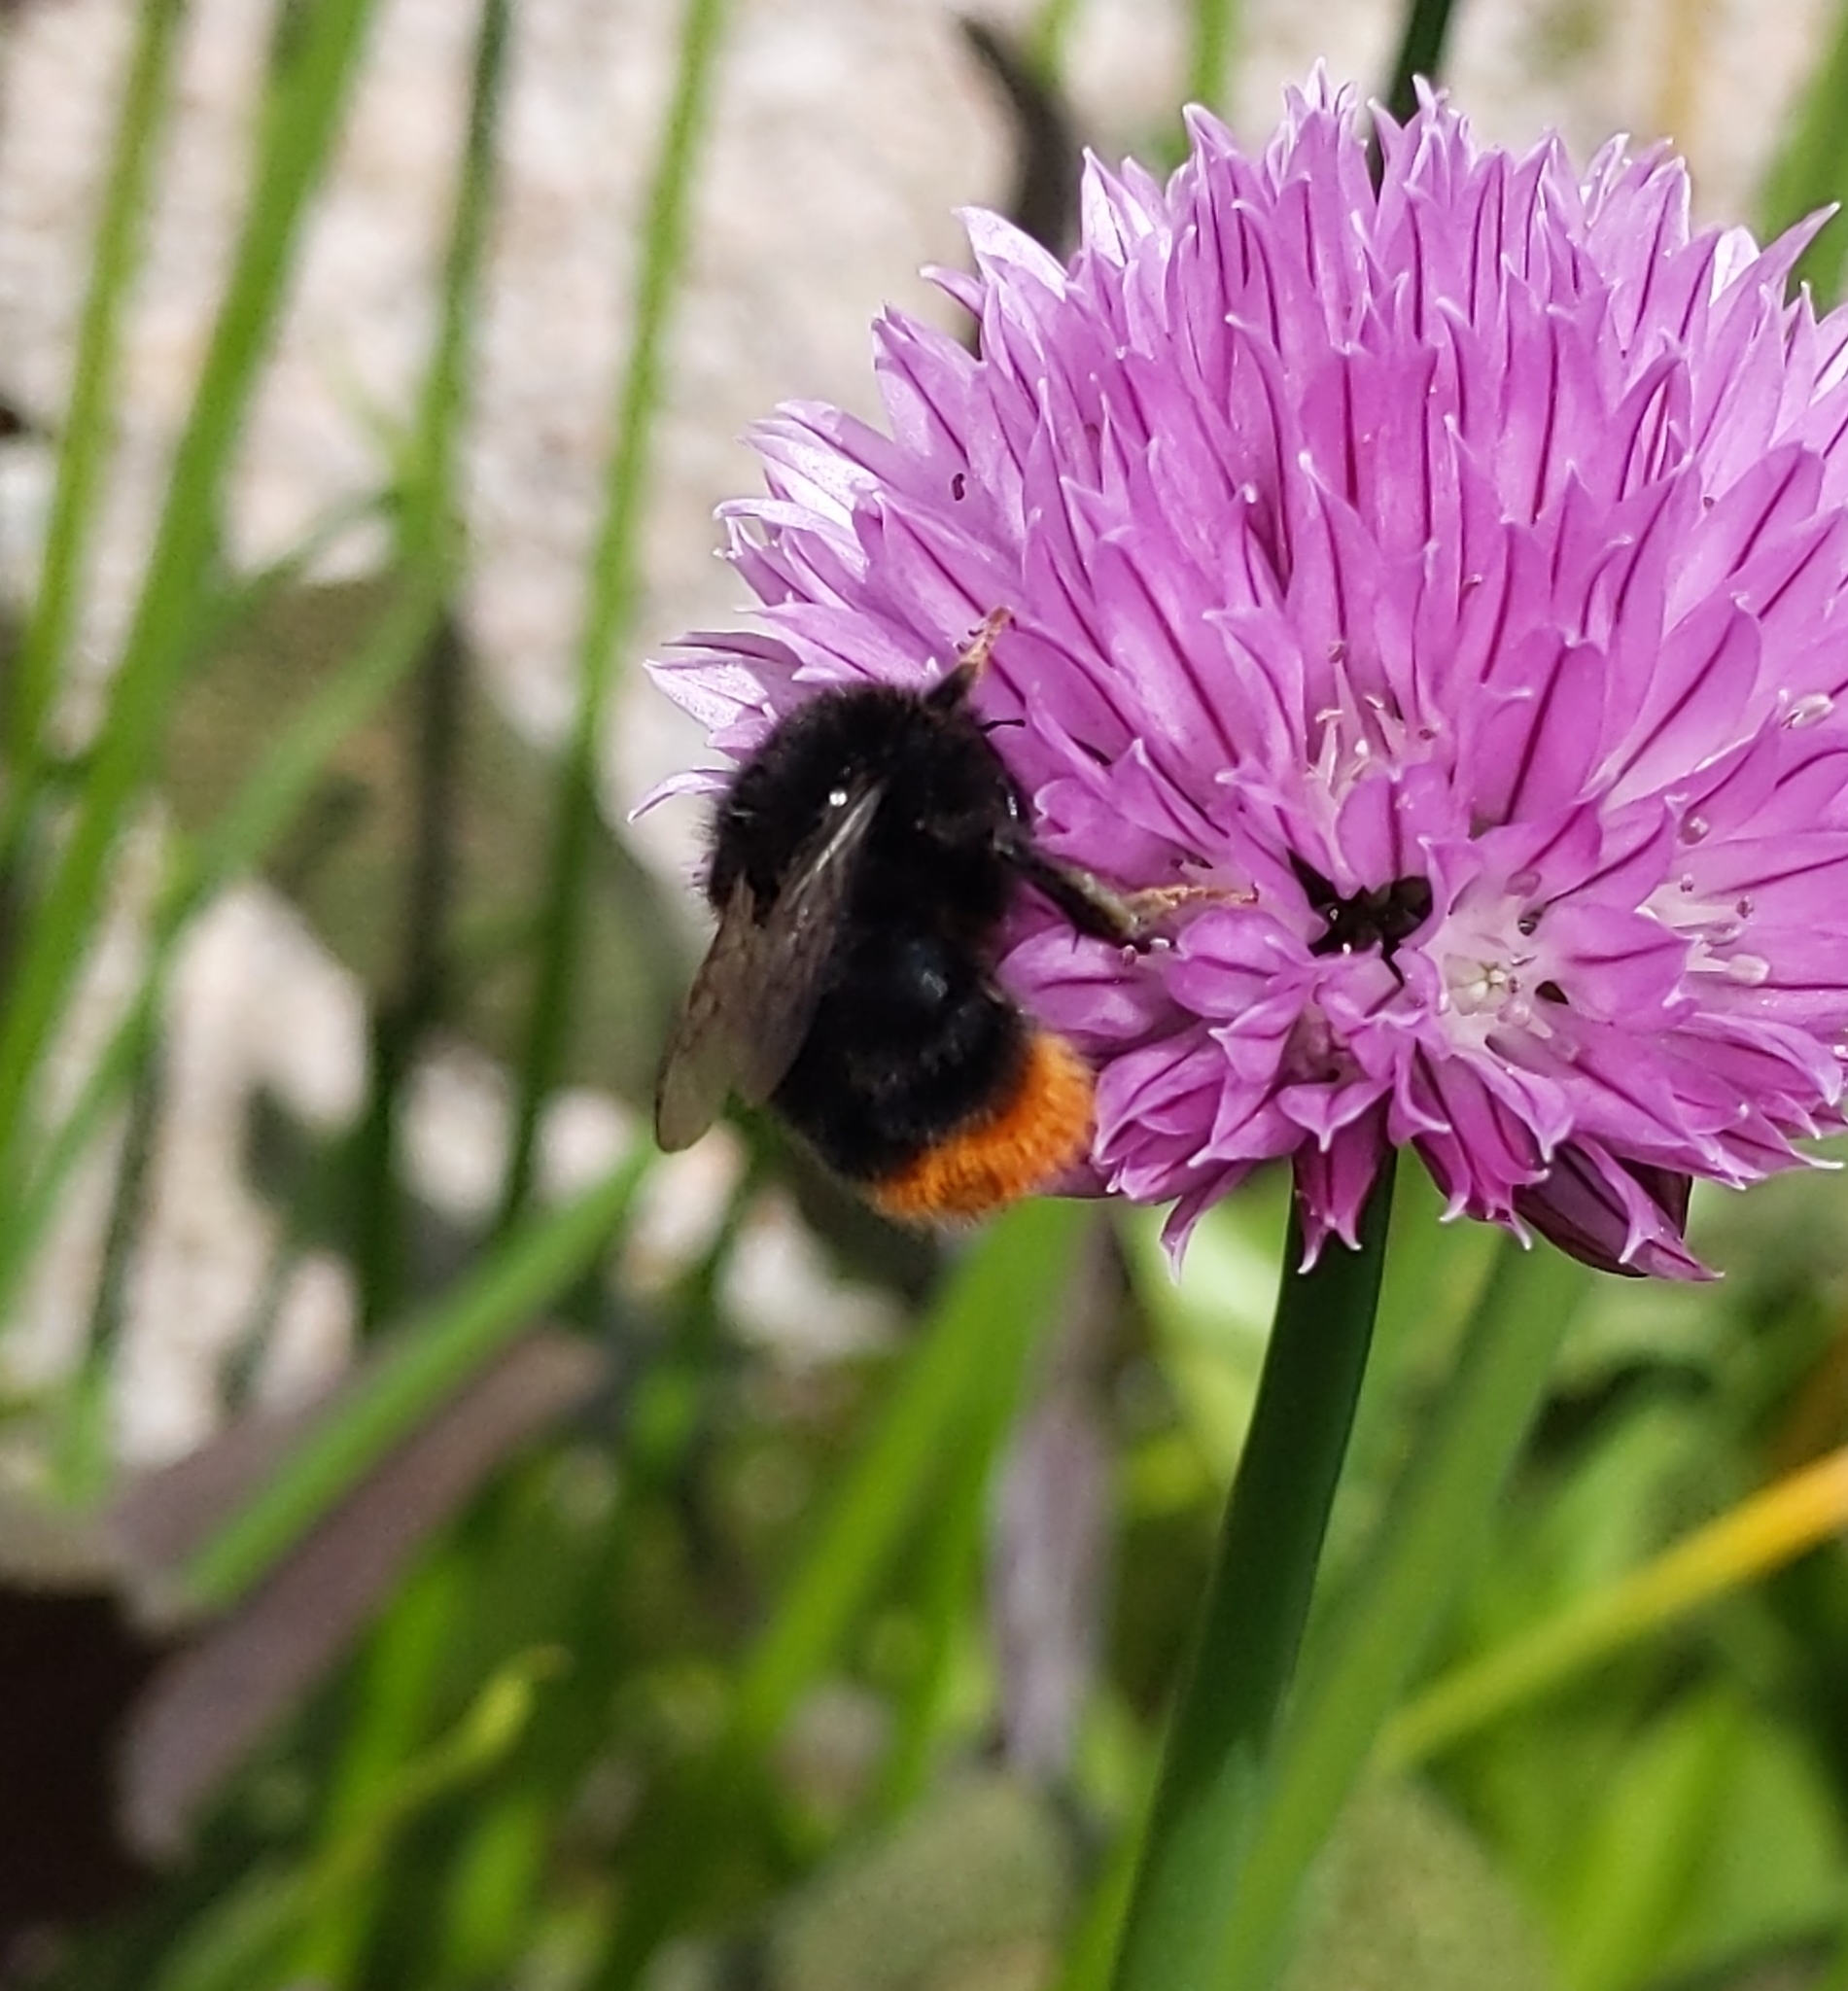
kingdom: Animalia
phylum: Arthropoda
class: Insecta
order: Hymenoptera
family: Apidae
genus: Bombus
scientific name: Bombus lapidarius
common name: Large red-tailed humble-bee
